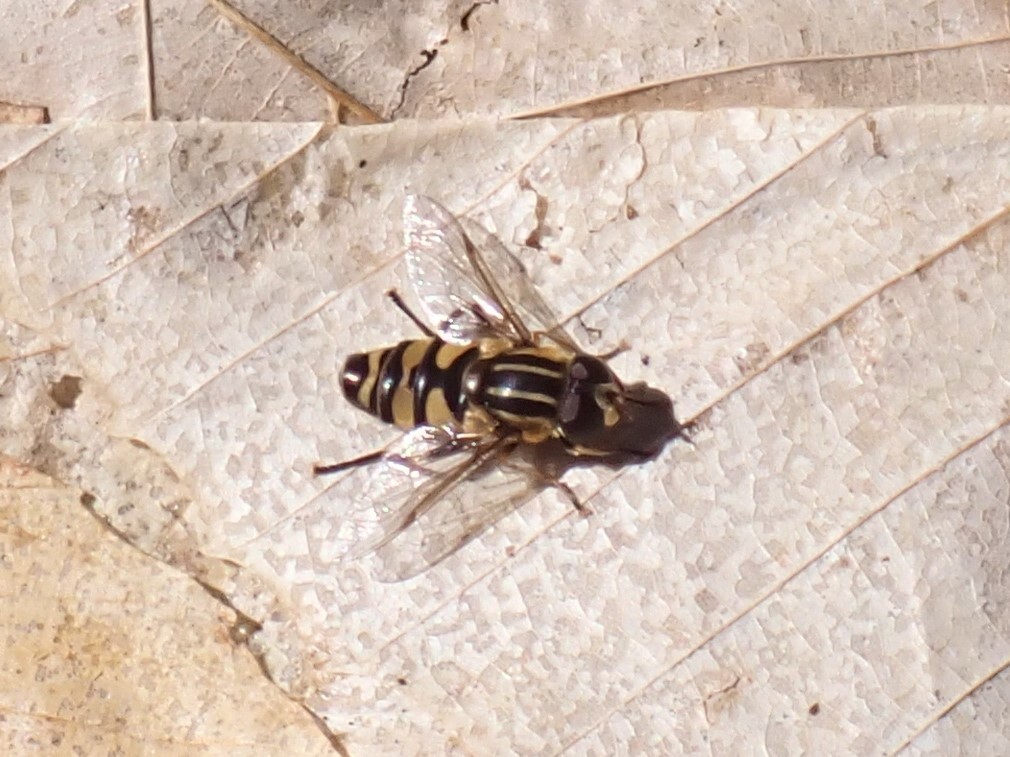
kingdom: Animalia
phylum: Arthropoda
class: Insecta
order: Diptera
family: Syrphidae
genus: Helophilus
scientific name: Helophilus fasciatus
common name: Narrow-headed marsh fly
